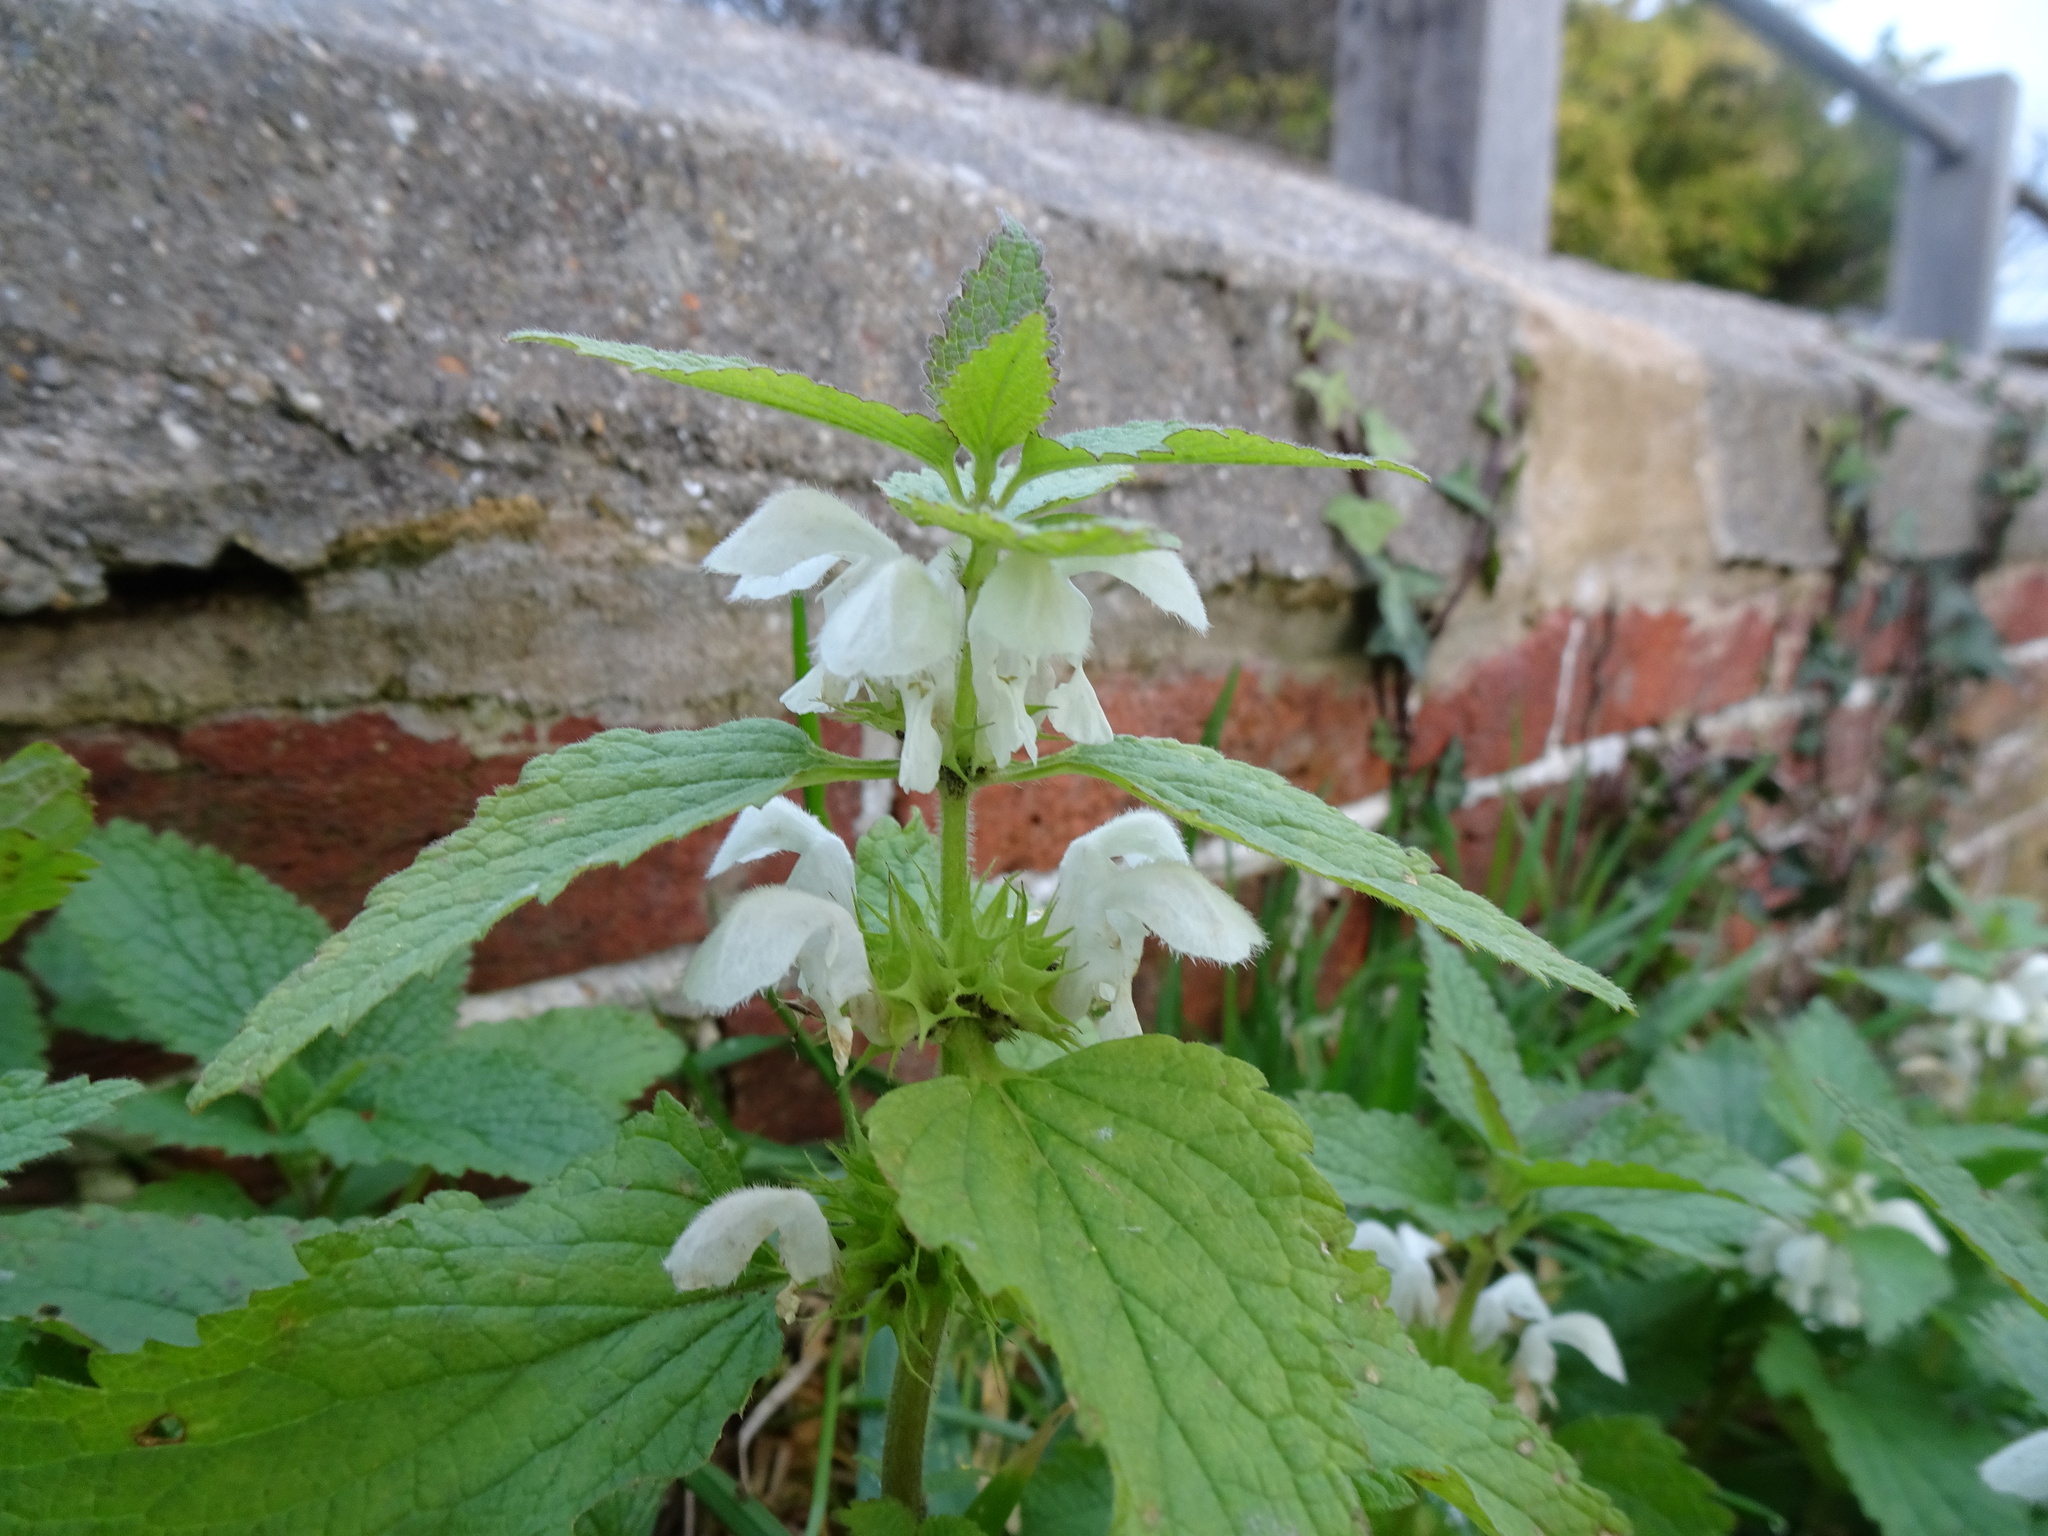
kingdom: Plantae
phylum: Tracheophyta
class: Magnoliopsida
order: Lamiales
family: Lamiaceae
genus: Lamium
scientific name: Lamium album
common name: White dead-nettle
